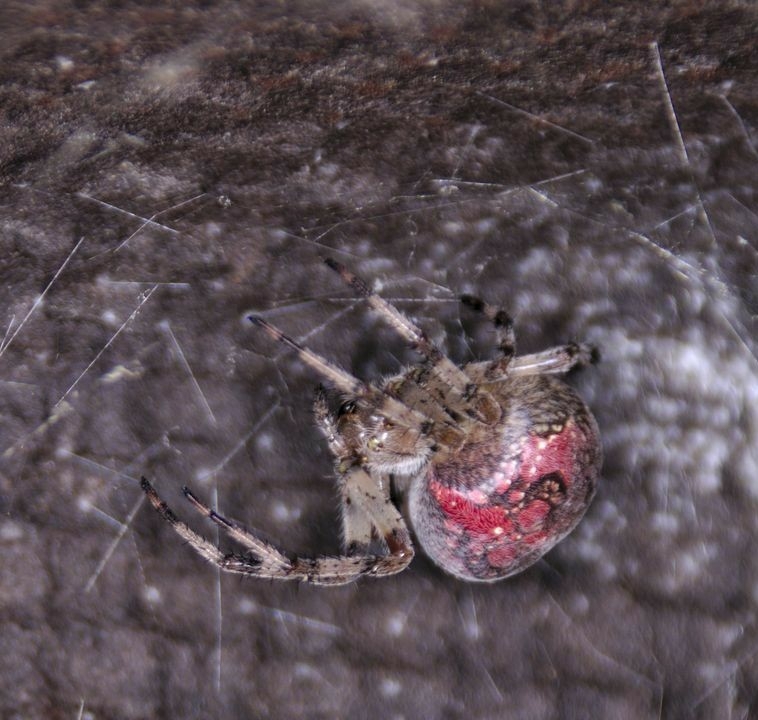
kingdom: Animalia
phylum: Arthropoda
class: Arachnida
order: Araneae
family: Araneidae
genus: Araneus
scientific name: Araneus marmoreus
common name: Marbled orbweaver
